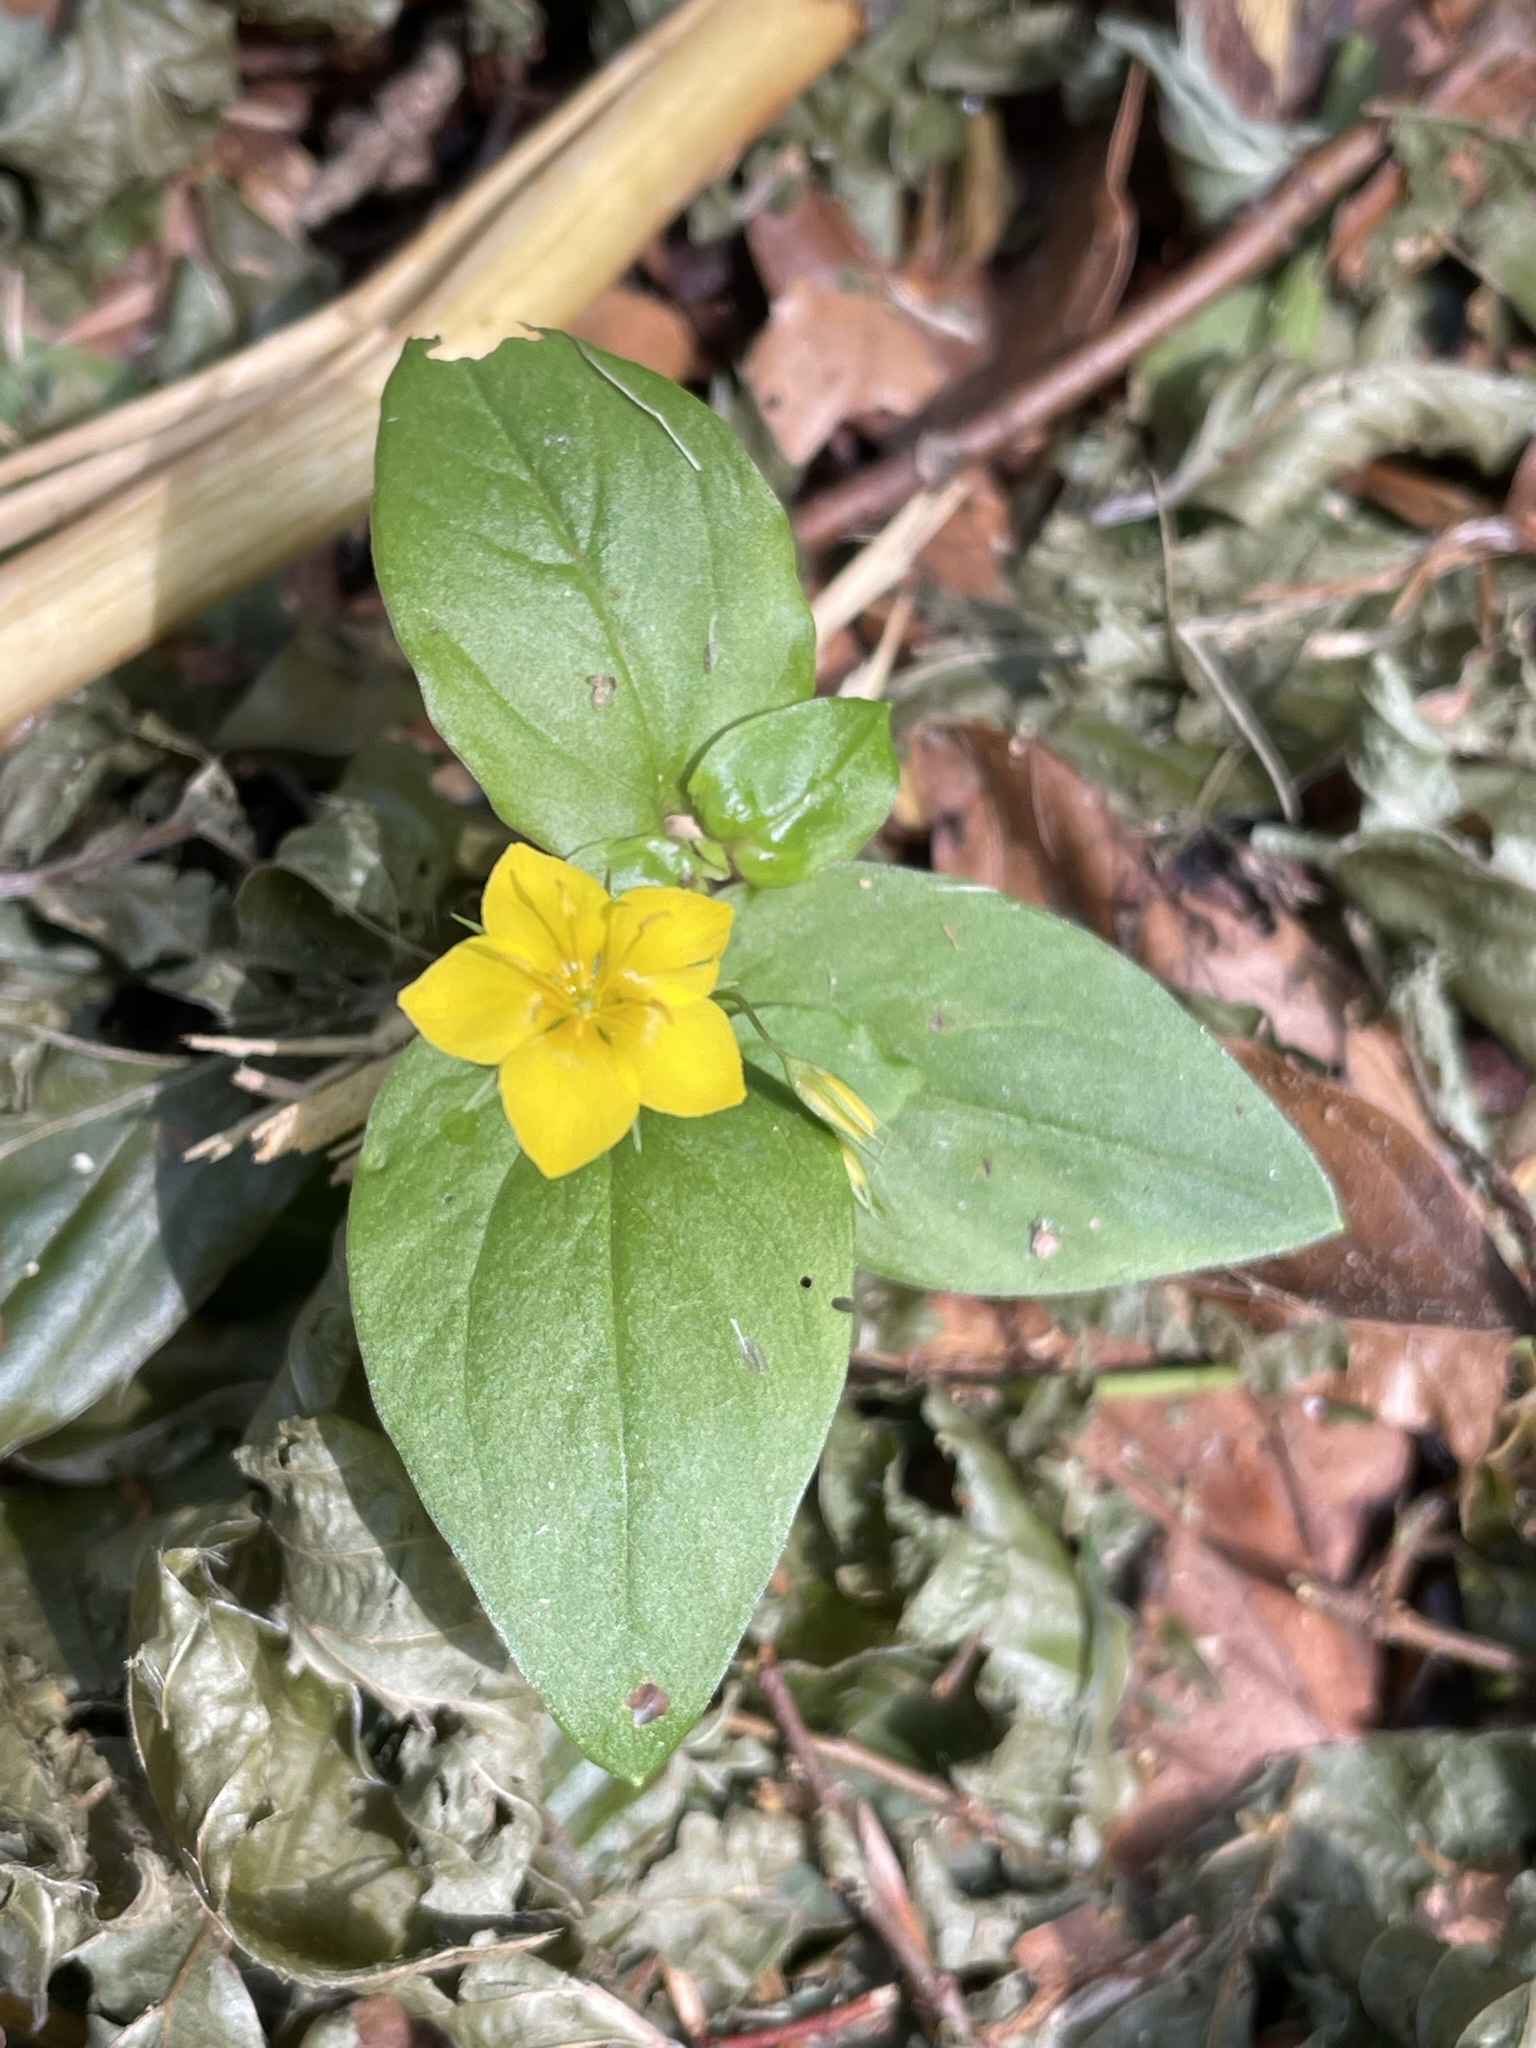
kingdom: Plantae
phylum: Tracheophyta
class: Magnoliopsida
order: Ericales
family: Primulaceae
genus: Lysimachia
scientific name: Lysimachia nemorum
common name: Yellow pimpernel
